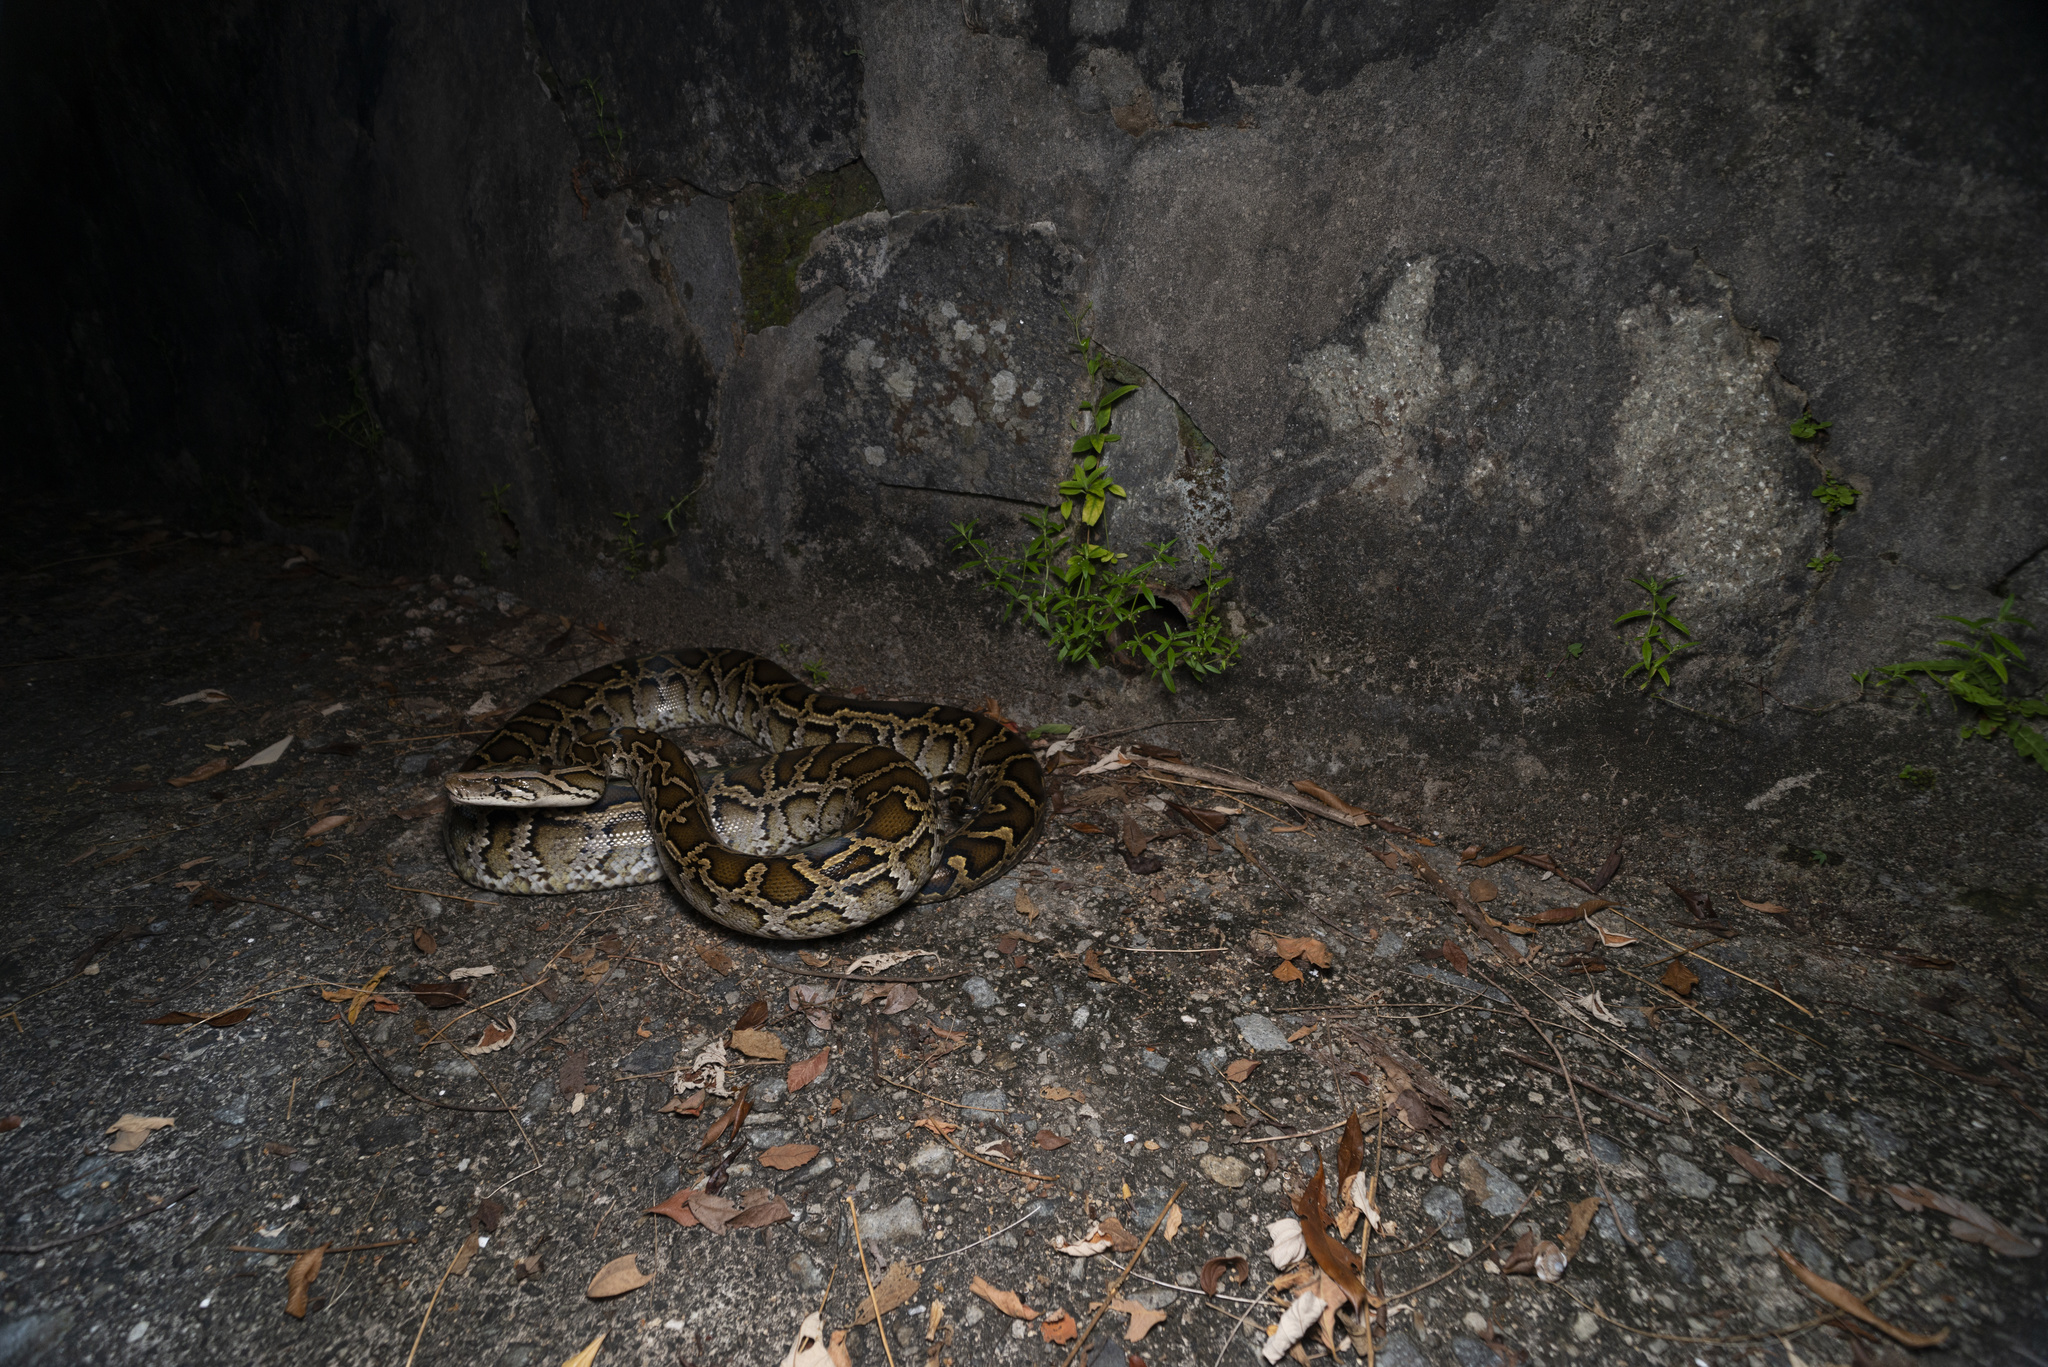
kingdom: Animalia
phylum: Chordata
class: Squamata
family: Pythonidae
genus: Python
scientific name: Python bivittatus
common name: Burmese python
